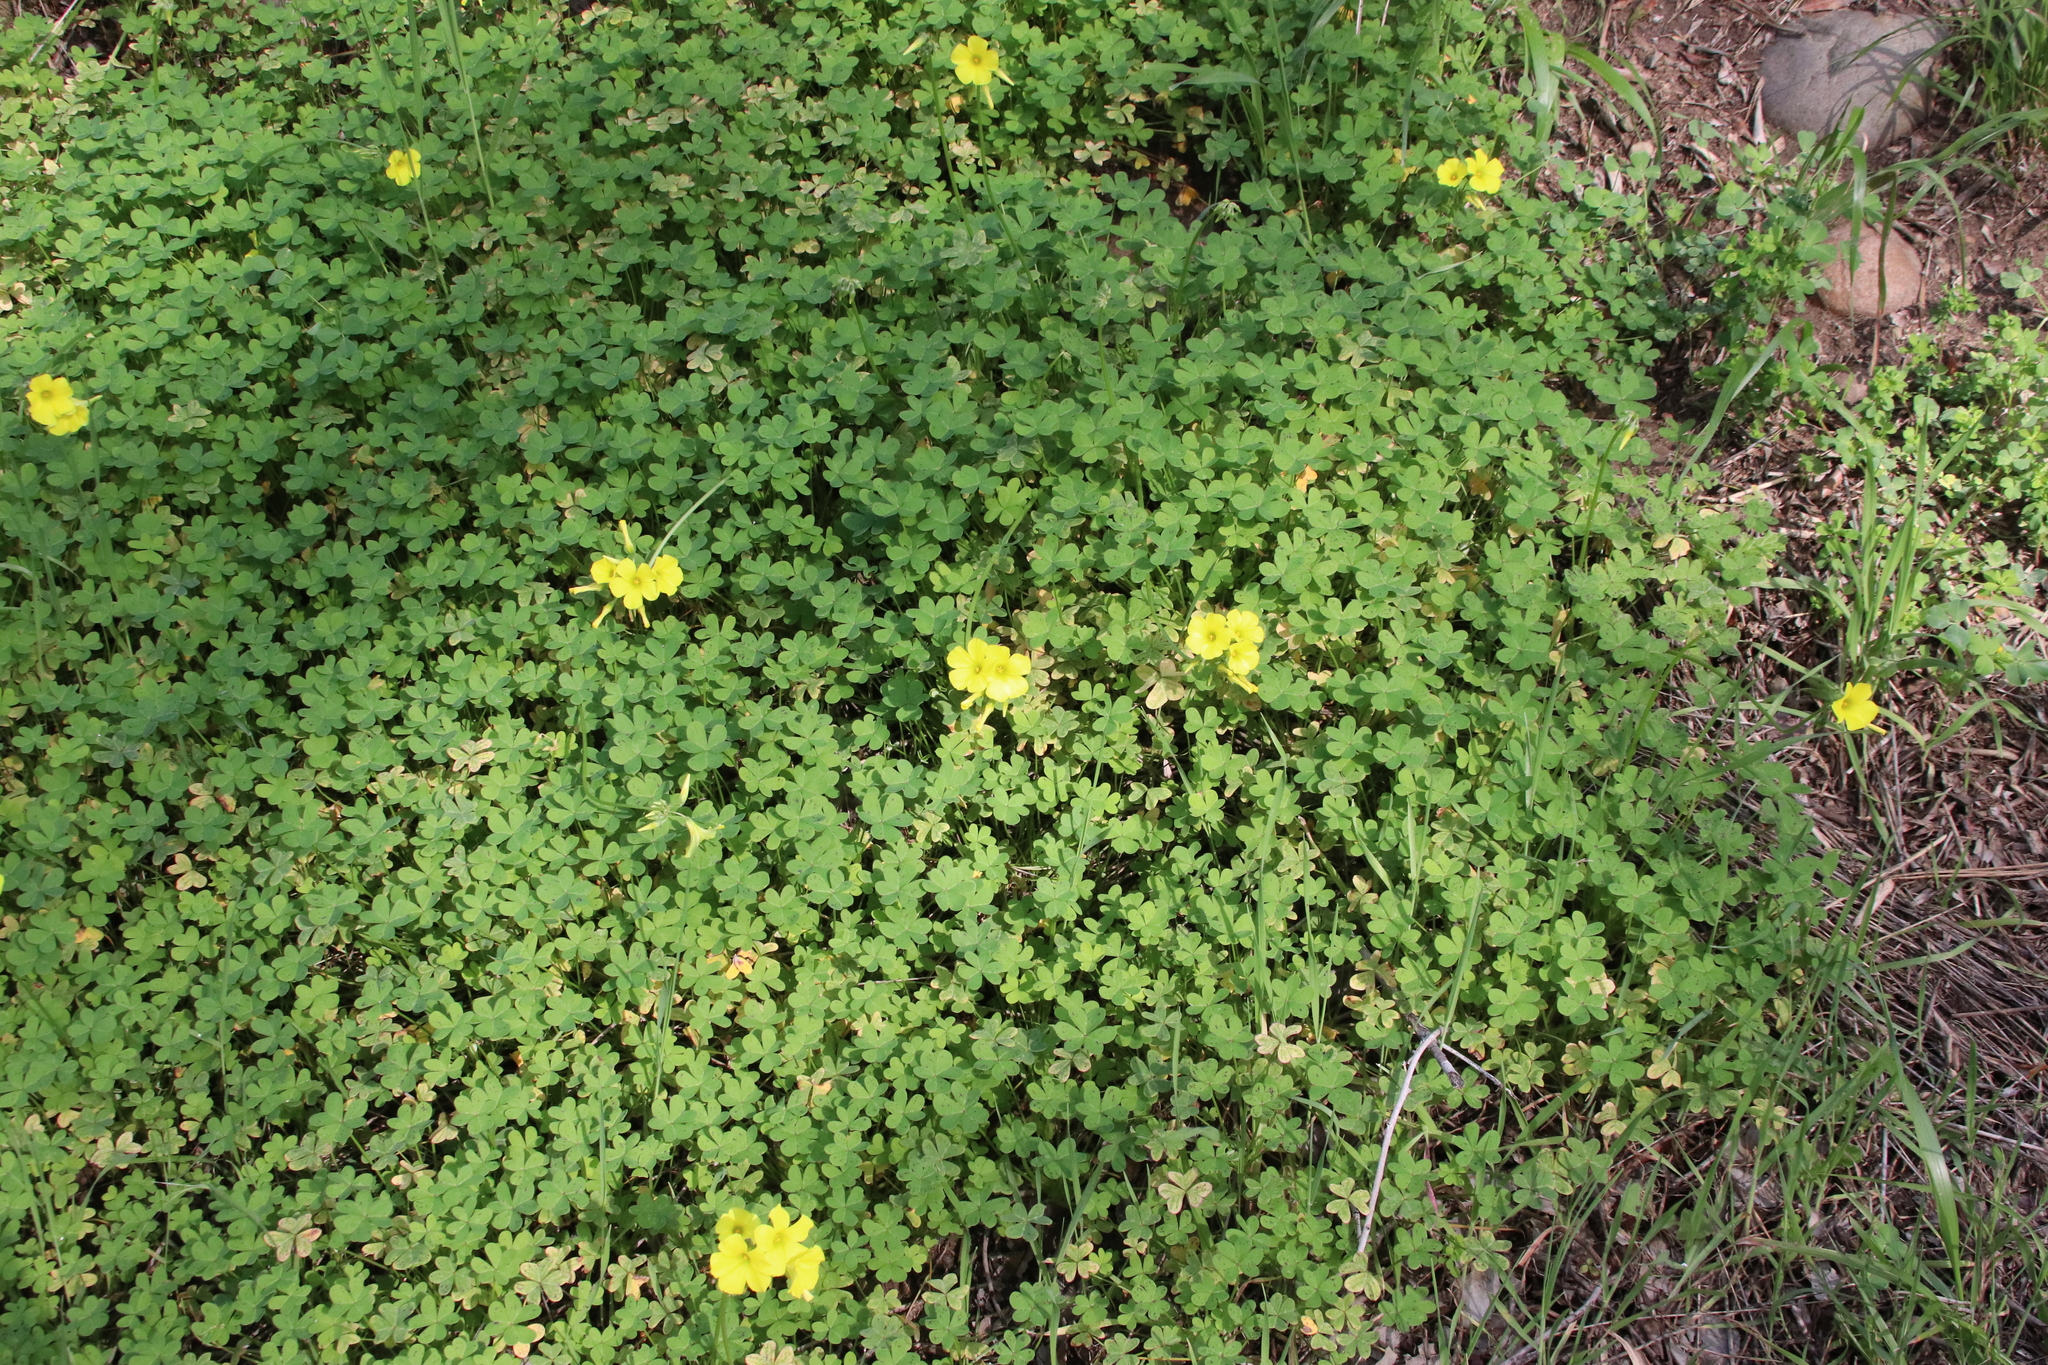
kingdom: Plantae
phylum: Tracheophyta
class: Magnoliopsida
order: Oxalidales
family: Oxalidaceae
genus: Oxalis
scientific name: Oxalis pes-caprae
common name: Bermuda-buttercup
